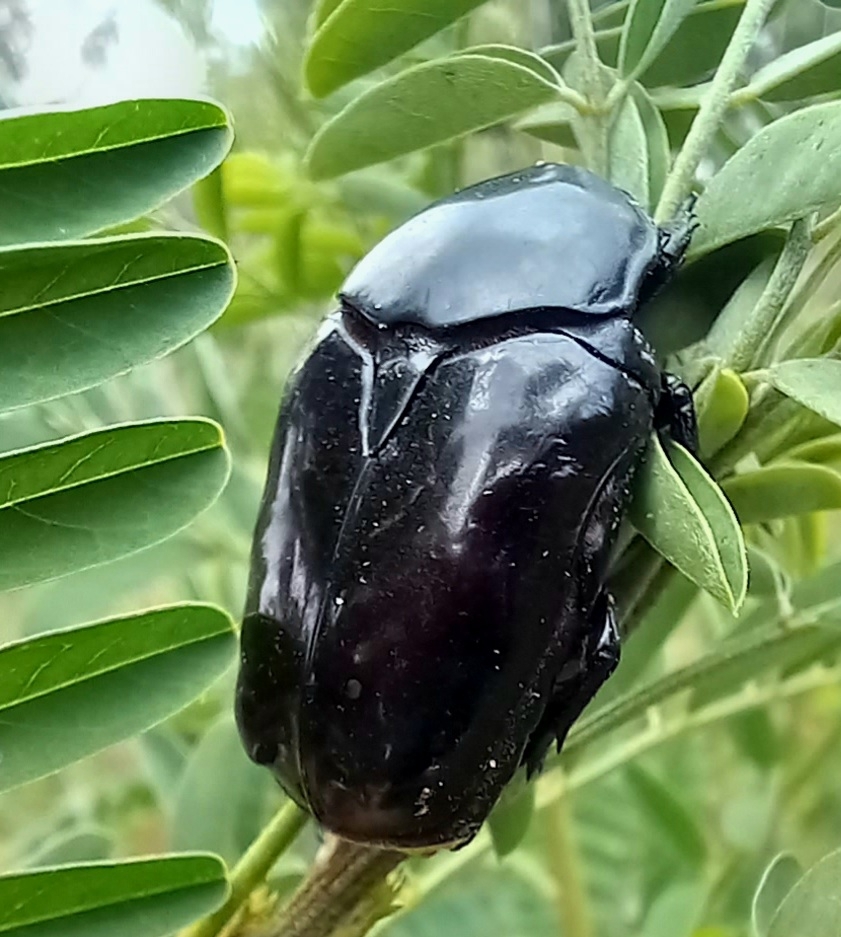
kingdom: Animalia
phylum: Arthropoda
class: Insecta
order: Coleoptera
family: Scarabaeidae
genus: Diplognatha
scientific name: Diplognatha gagates
